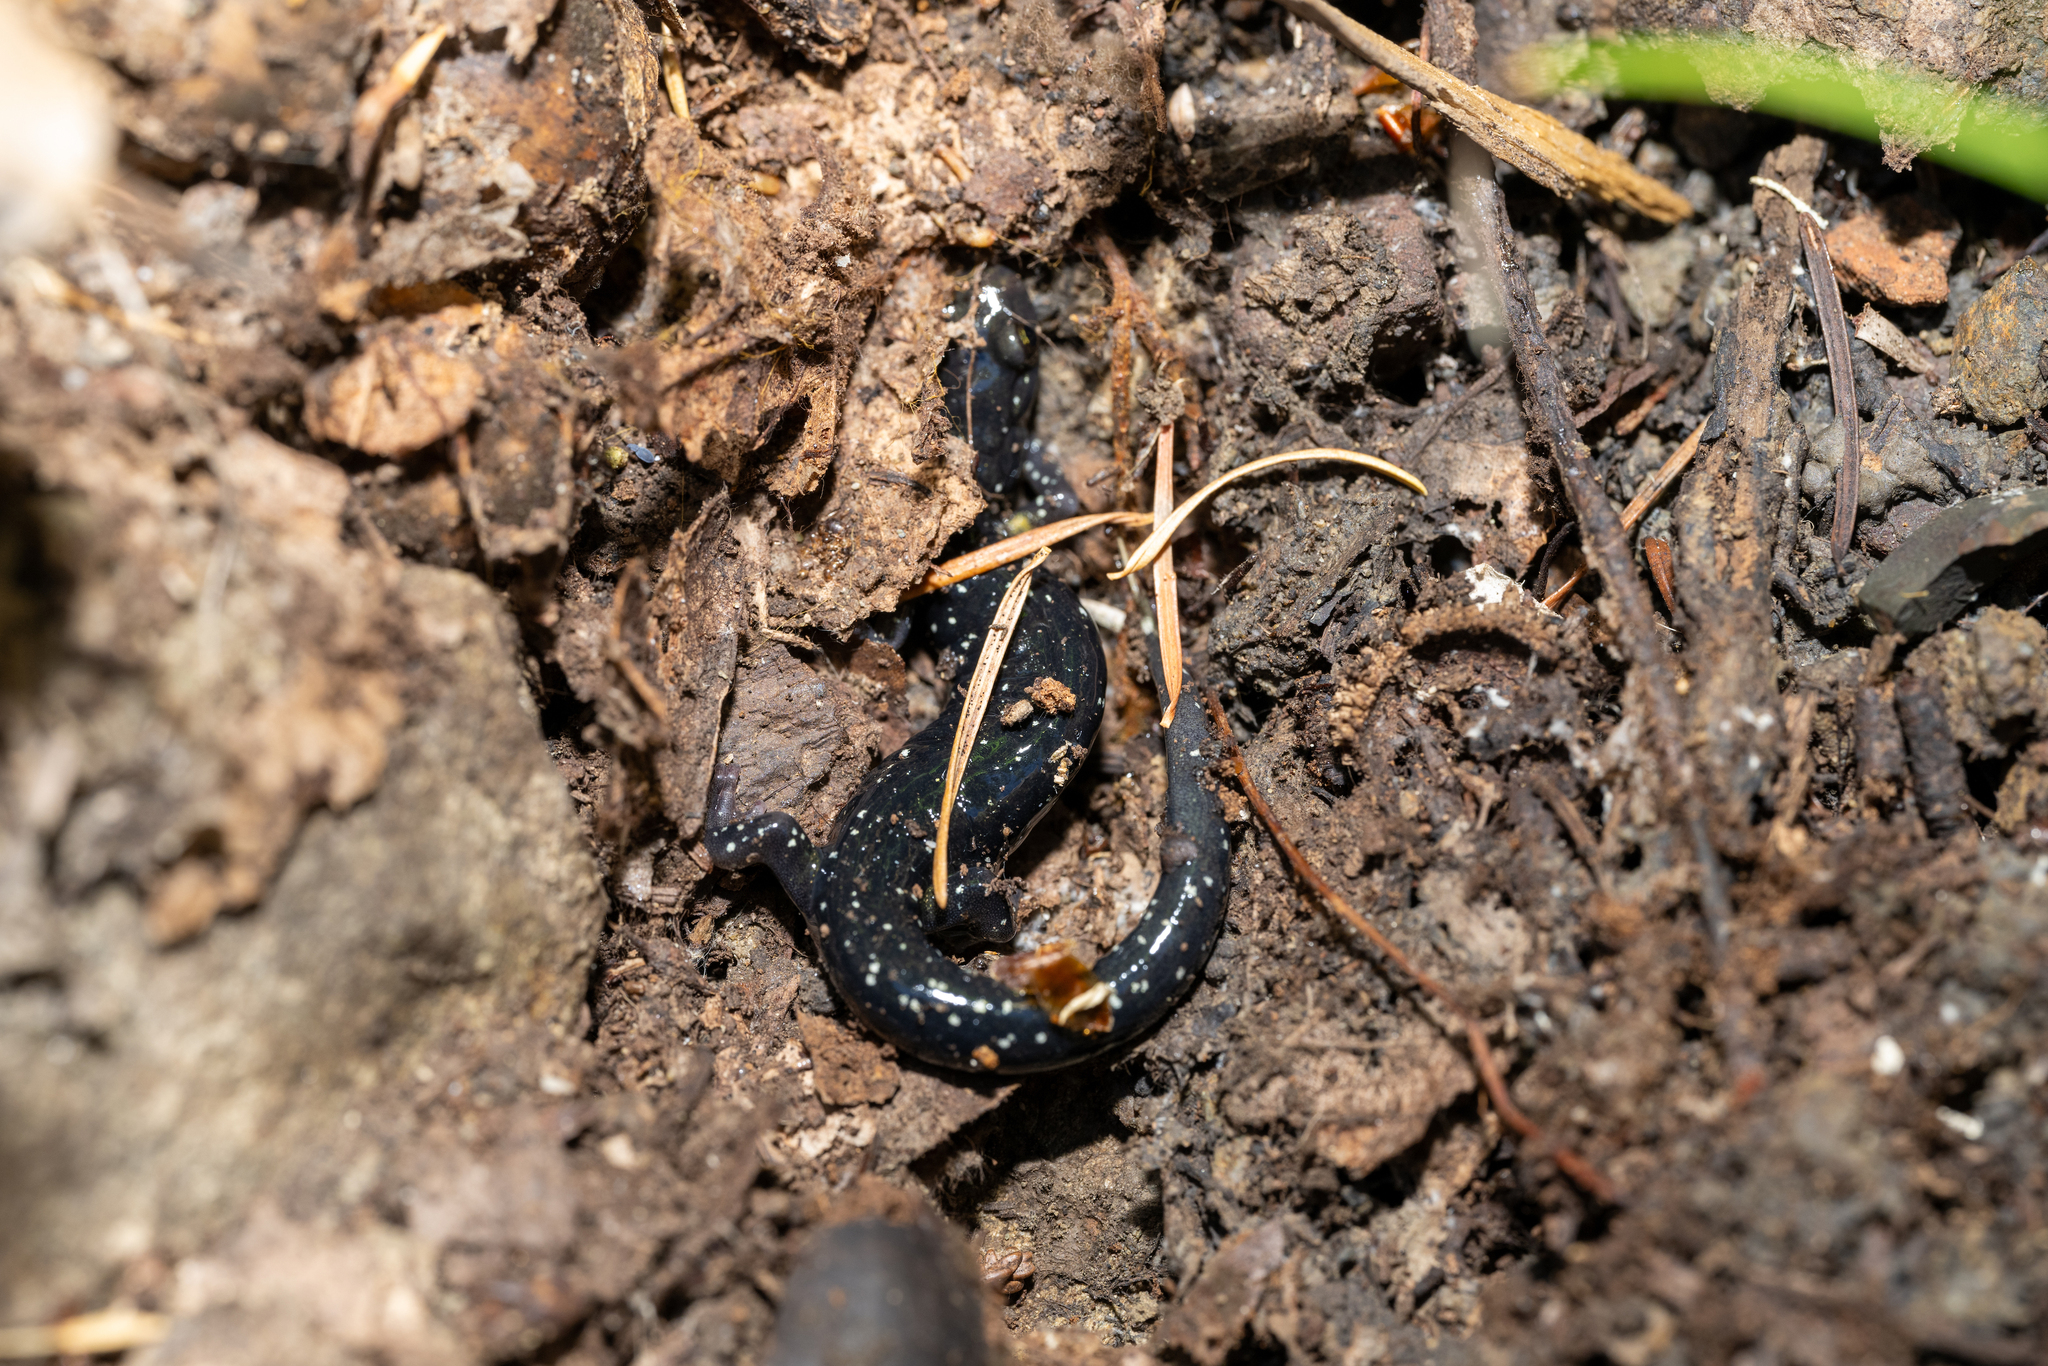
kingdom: Animalia
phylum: Chordata
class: Amphibia
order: Caudata
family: Plethodontidae
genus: Aneides
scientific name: Aneides flavipunctatus
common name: Black salamander
